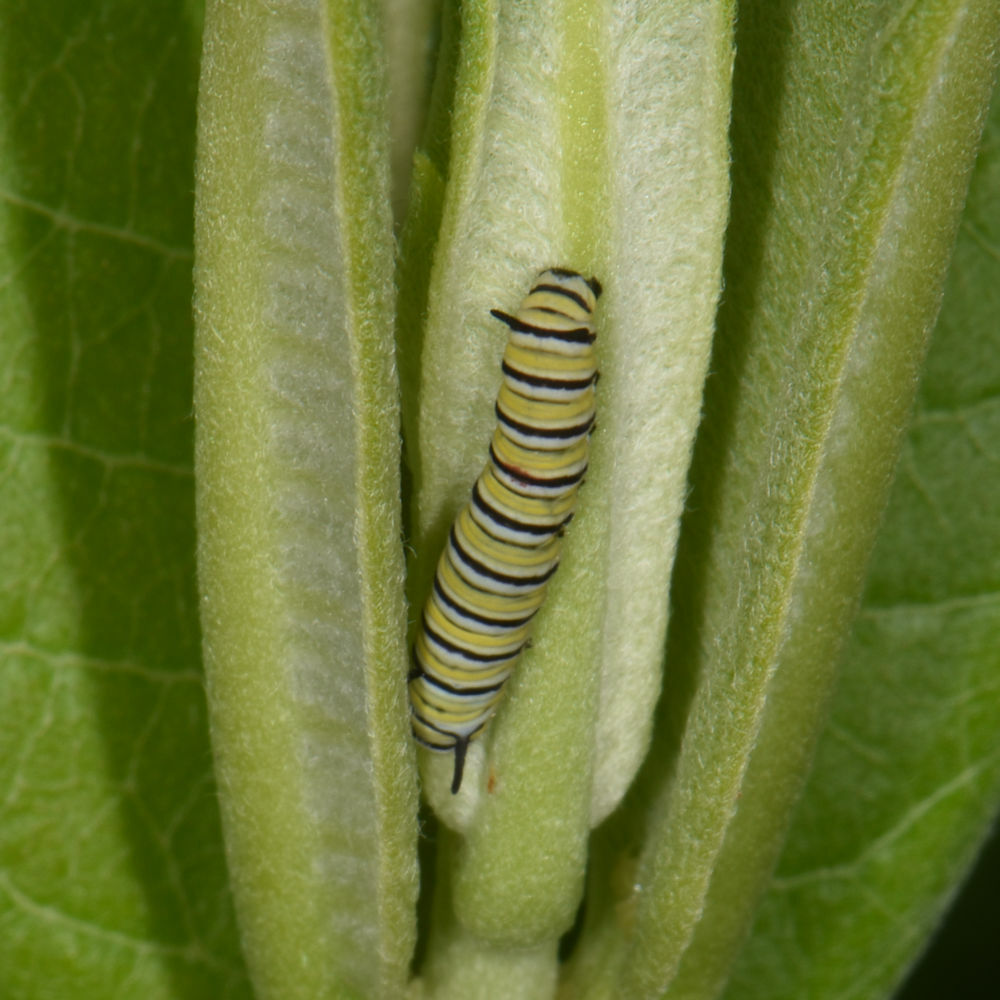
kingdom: Animalia
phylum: Arthropoda
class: Insecta
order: Lepidoptera
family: Nymphalidae
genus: Danaus
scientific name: Danaus plexippus
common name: Monarch
